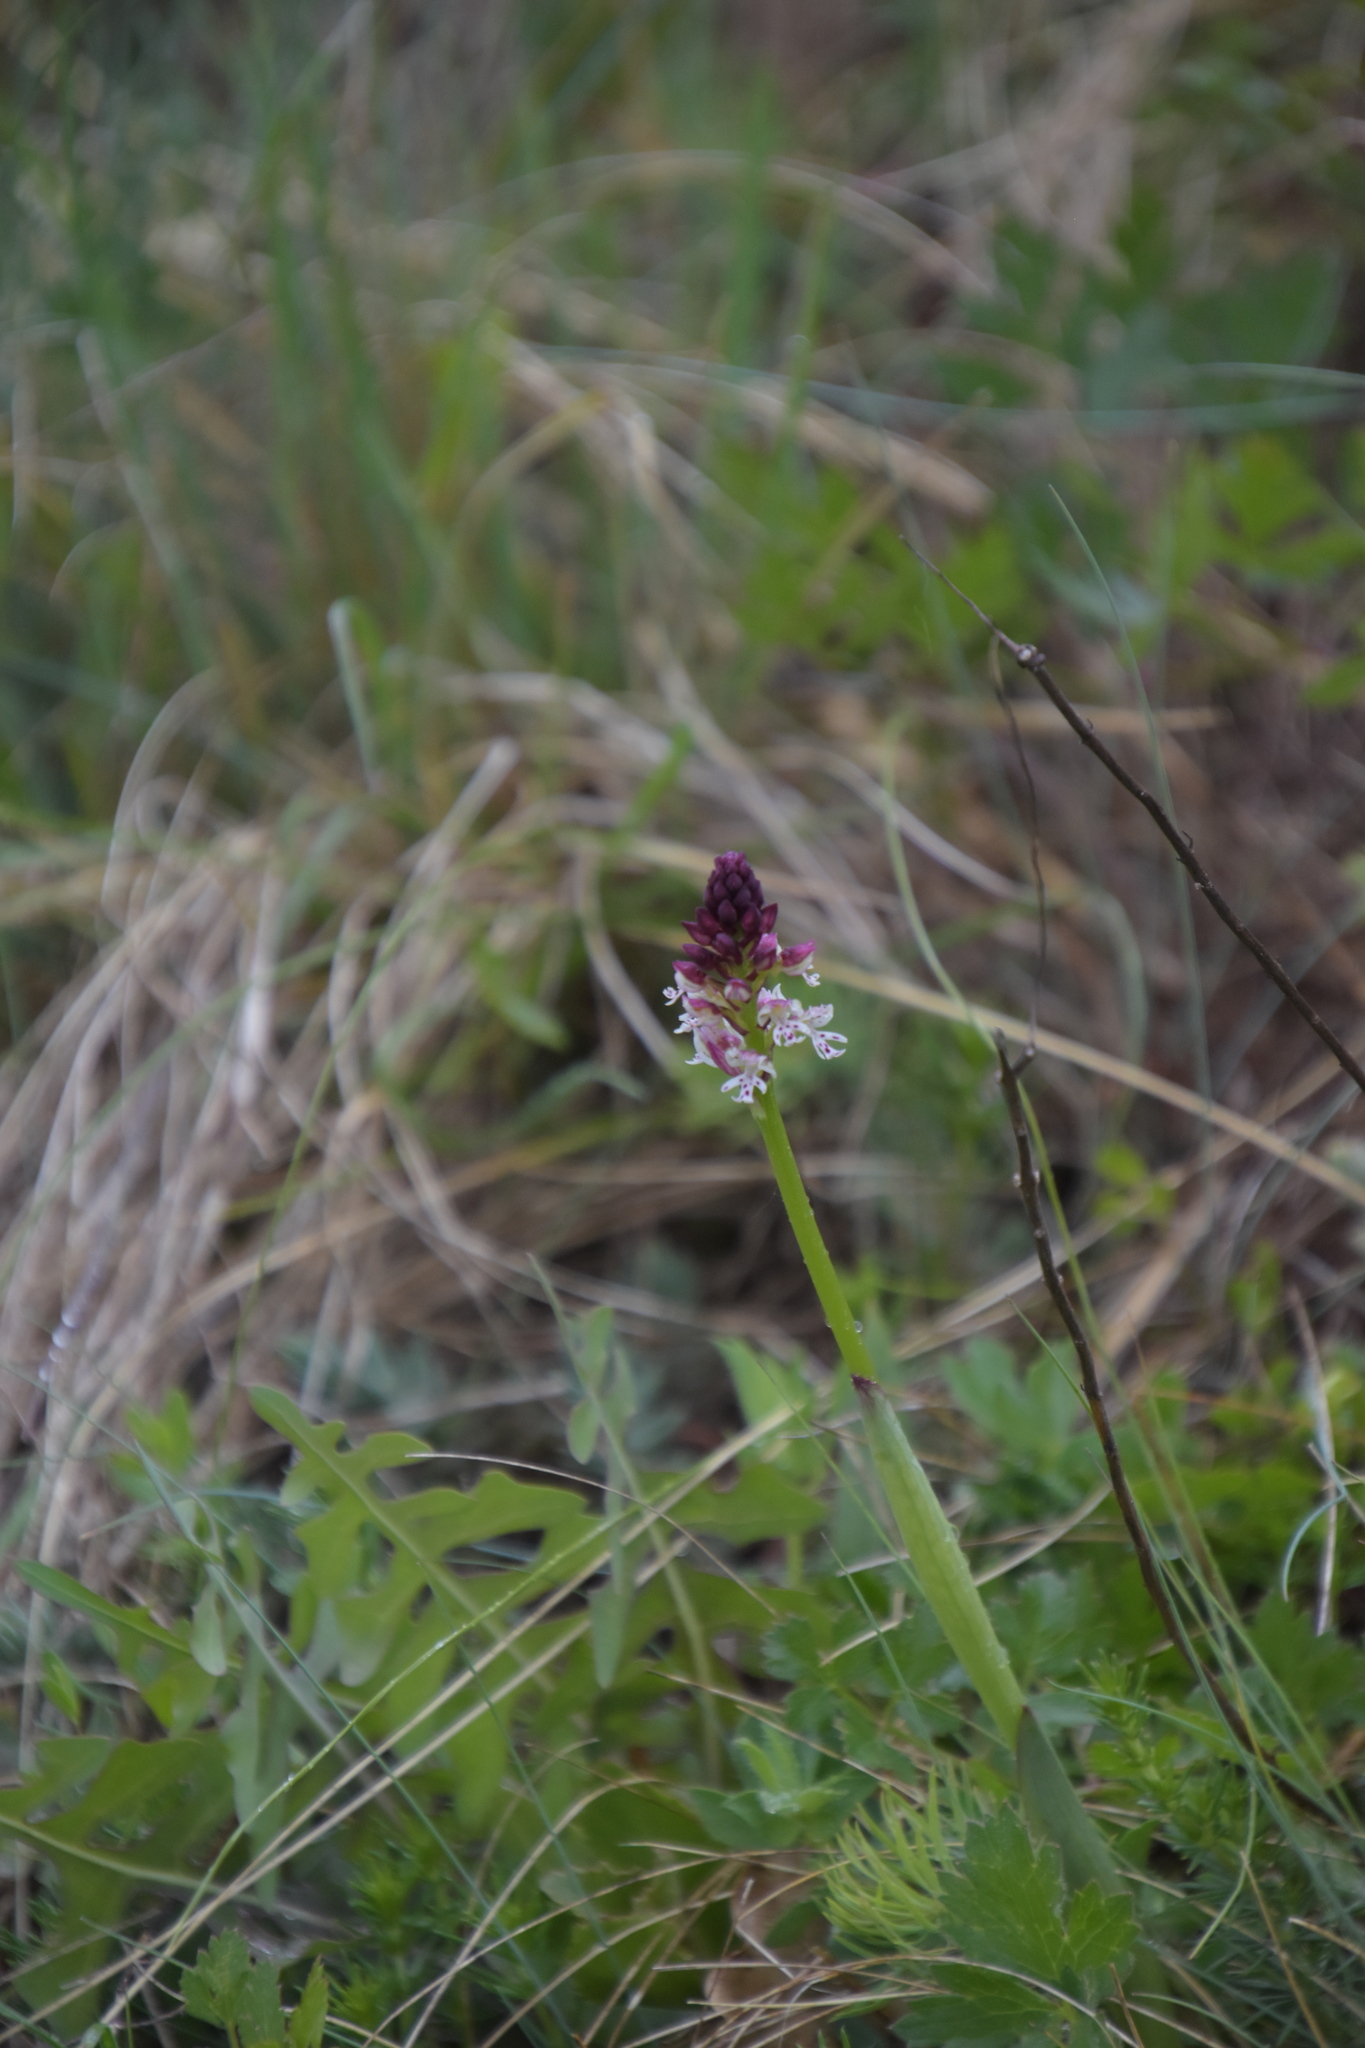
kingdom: Plantae
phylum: Tracheophyta
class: Liliopsida
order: Asparagales
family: Orchidaceae
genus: Neotinea
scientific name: Neotinea ustulata
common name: Burnt orchid
